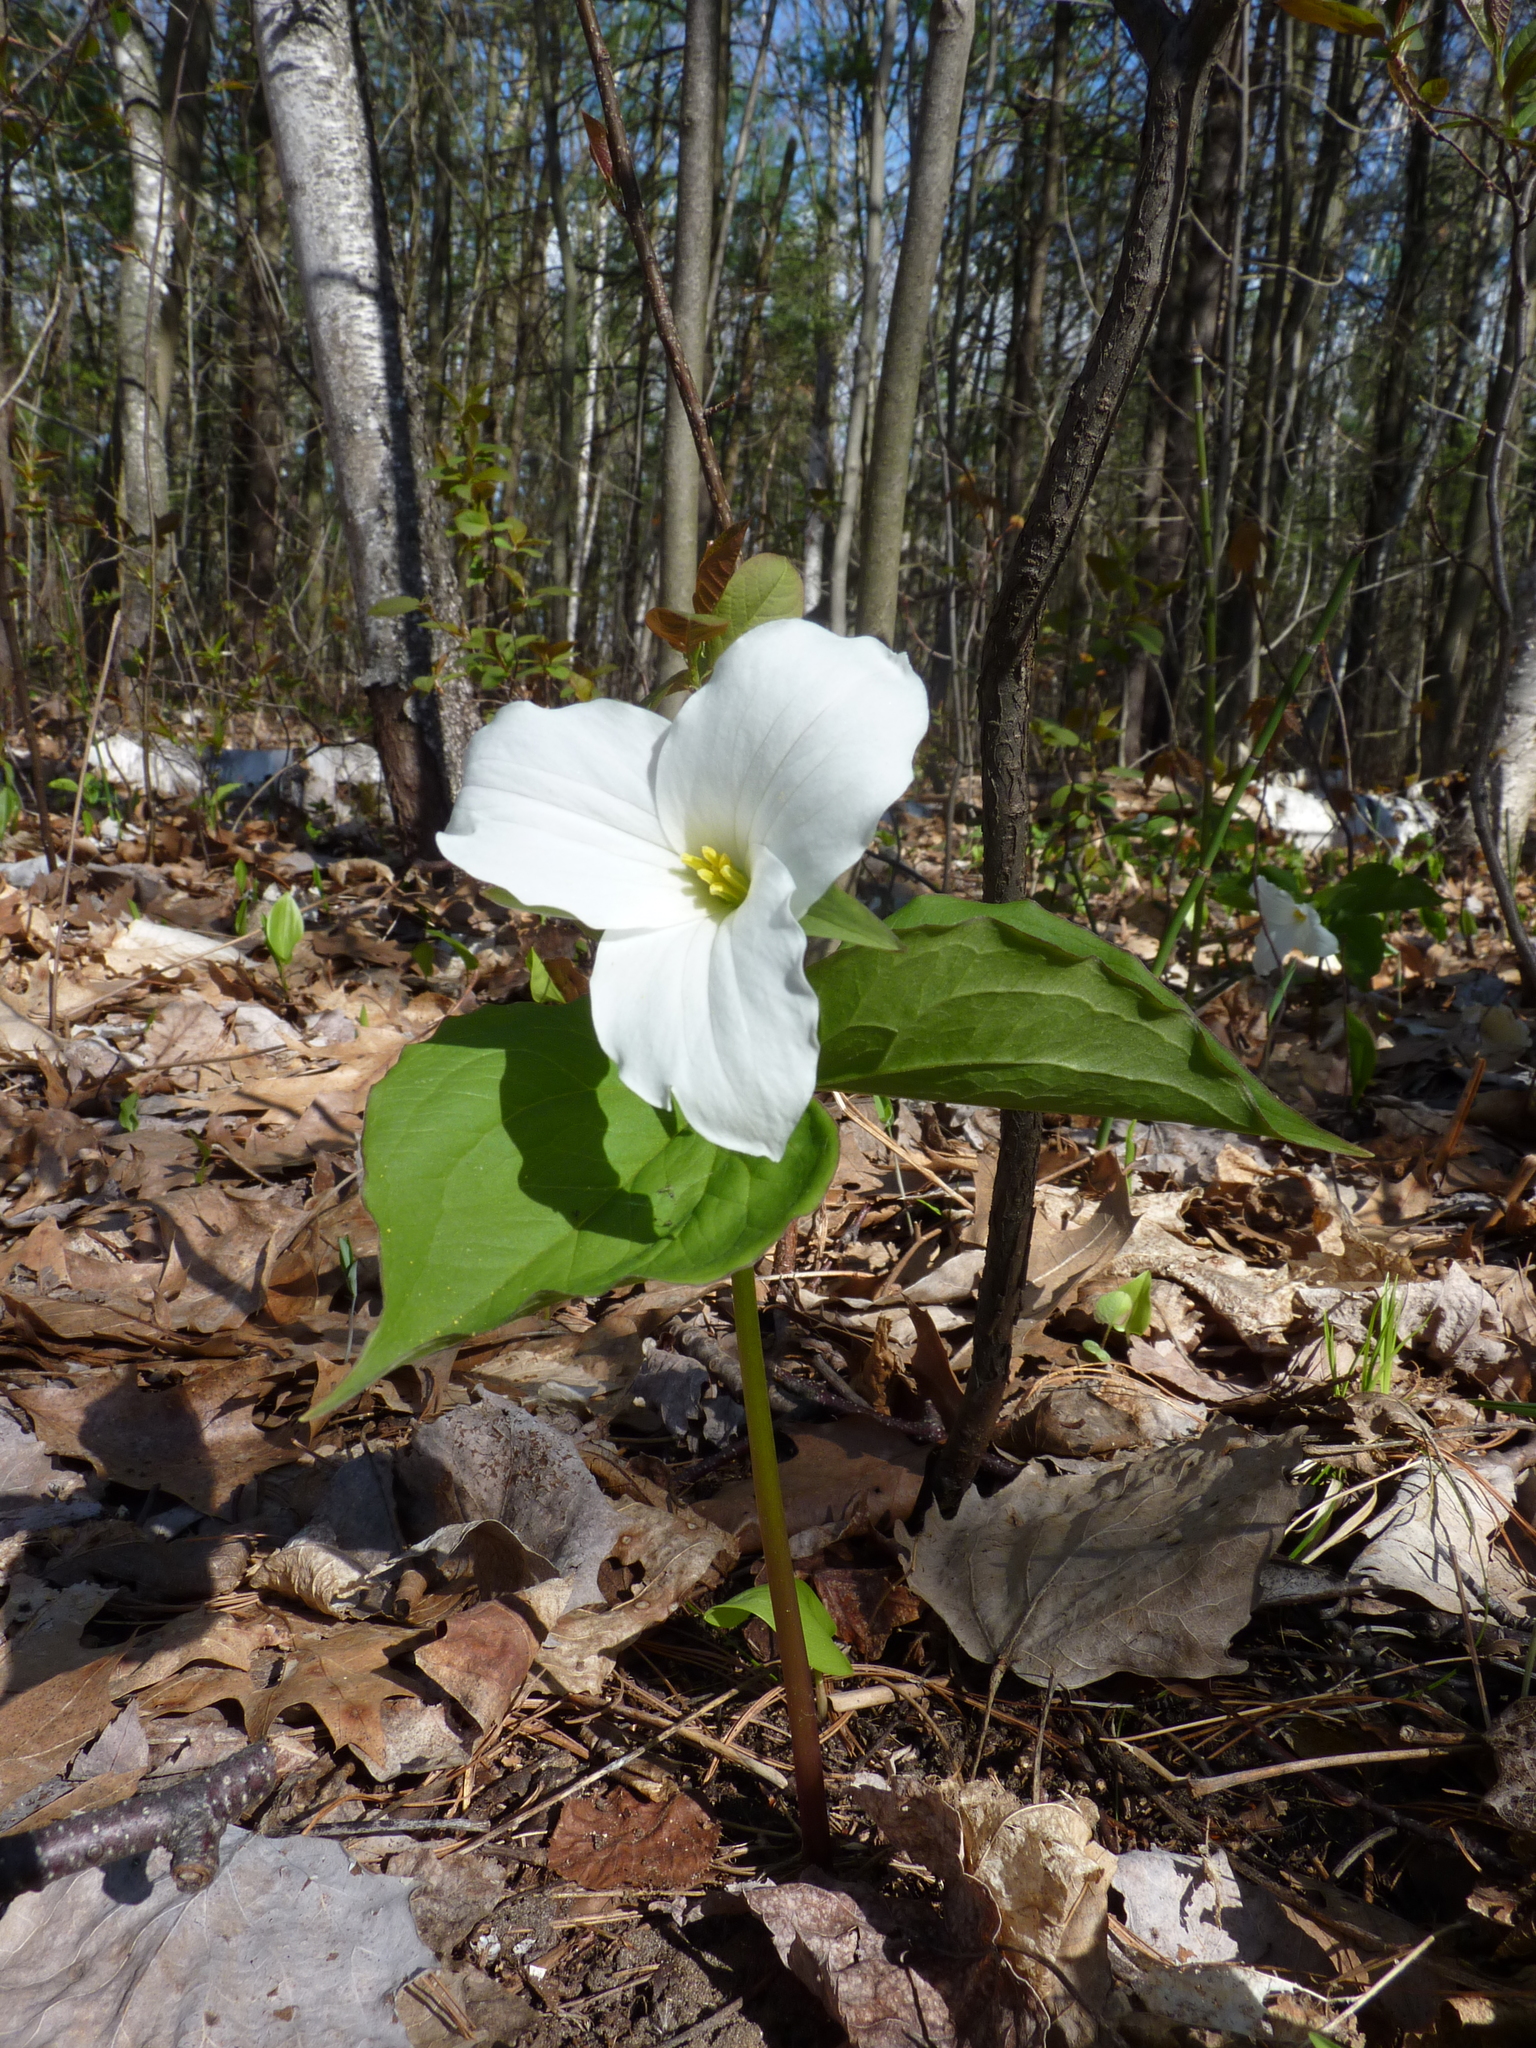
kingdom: Plantae
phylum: Tracheophyta
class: Liliopsida
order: Liliales
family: Melanthiaceae
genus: Trillium
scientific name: Trillium grandiflorum
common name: Great white trillium
